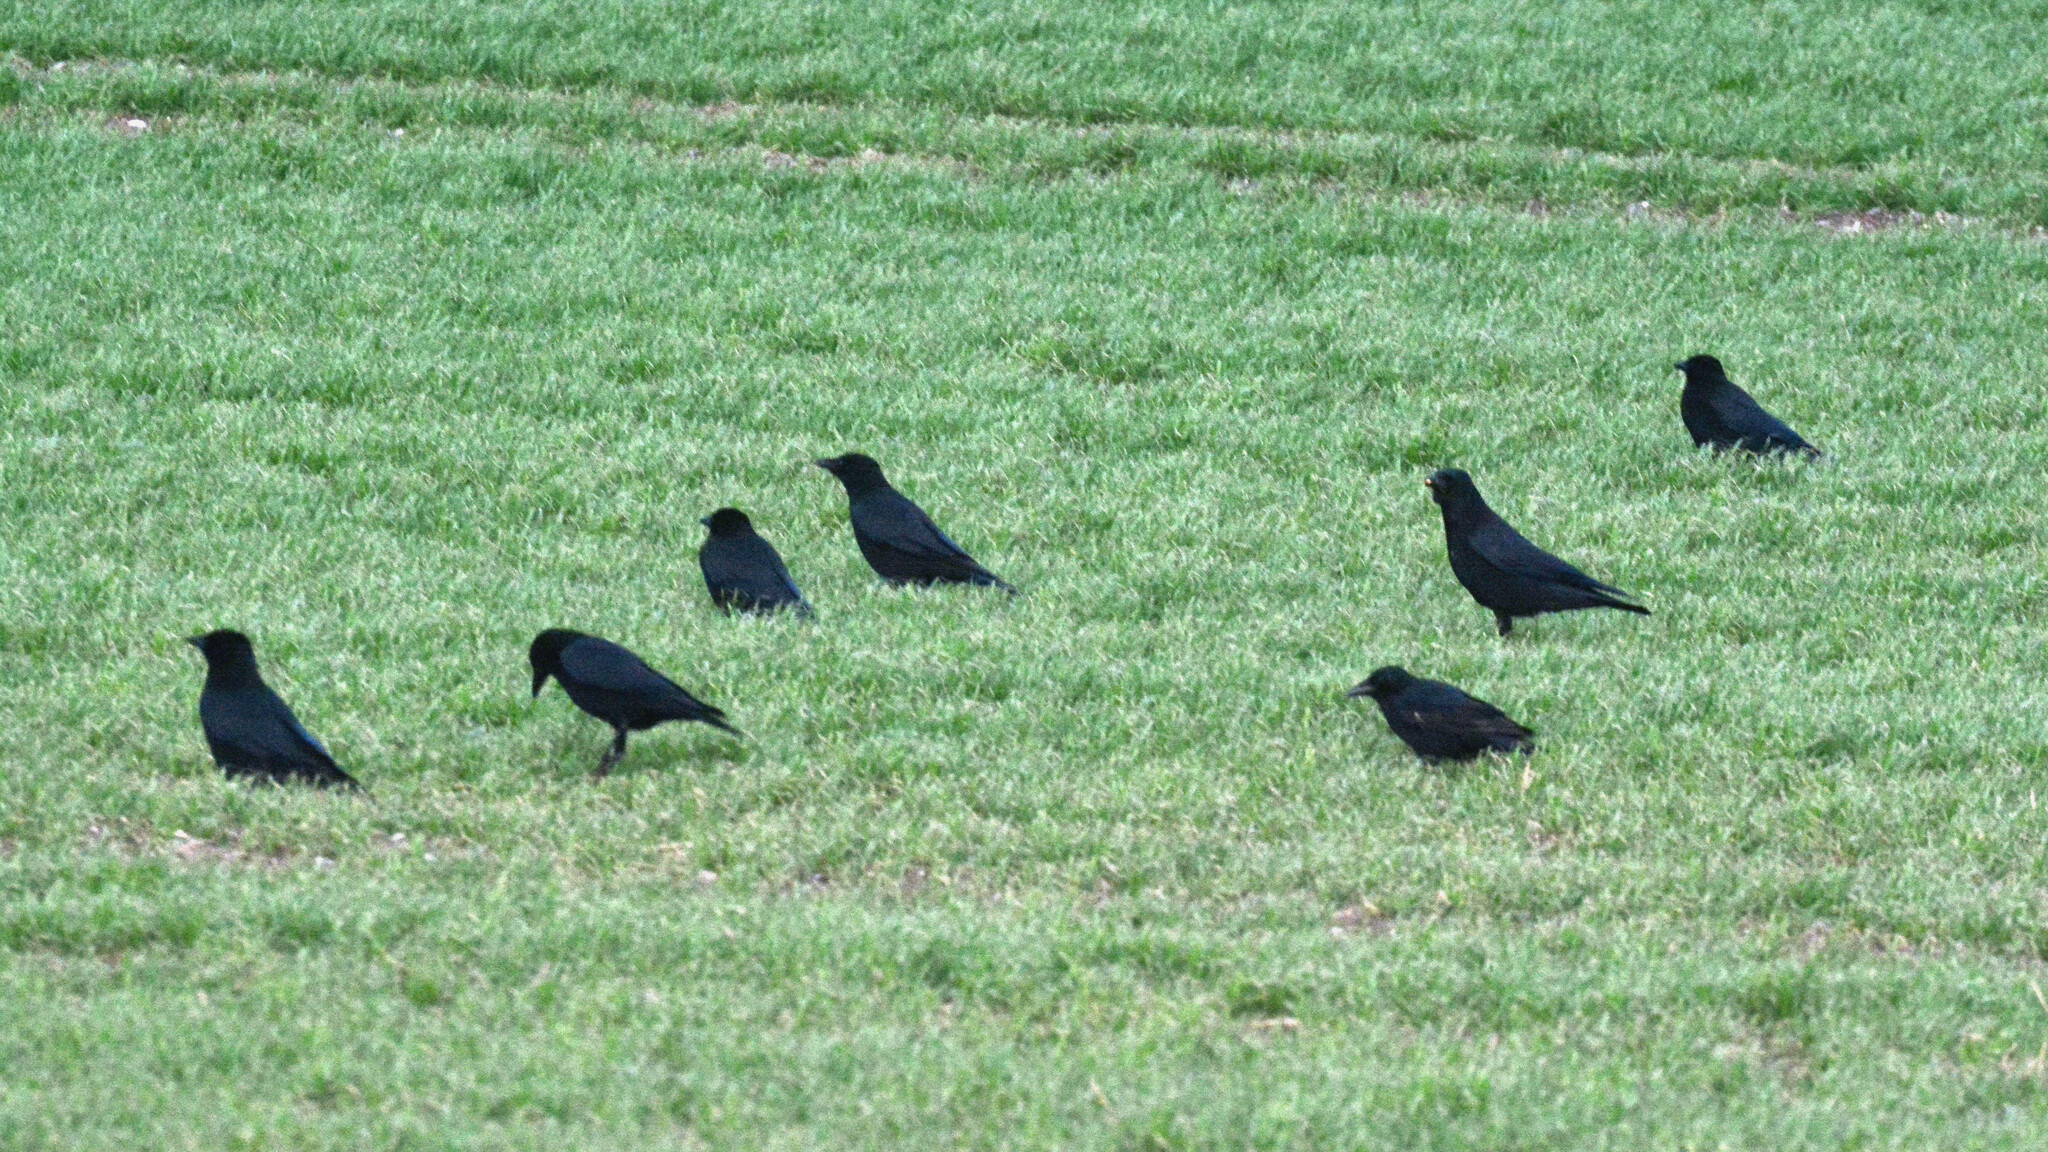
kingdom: Animalia
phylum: Chordata
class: Aves
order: Passeriformes
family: Corvidae
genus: Corvus
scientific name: Corvus corone
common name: Carrion crow
